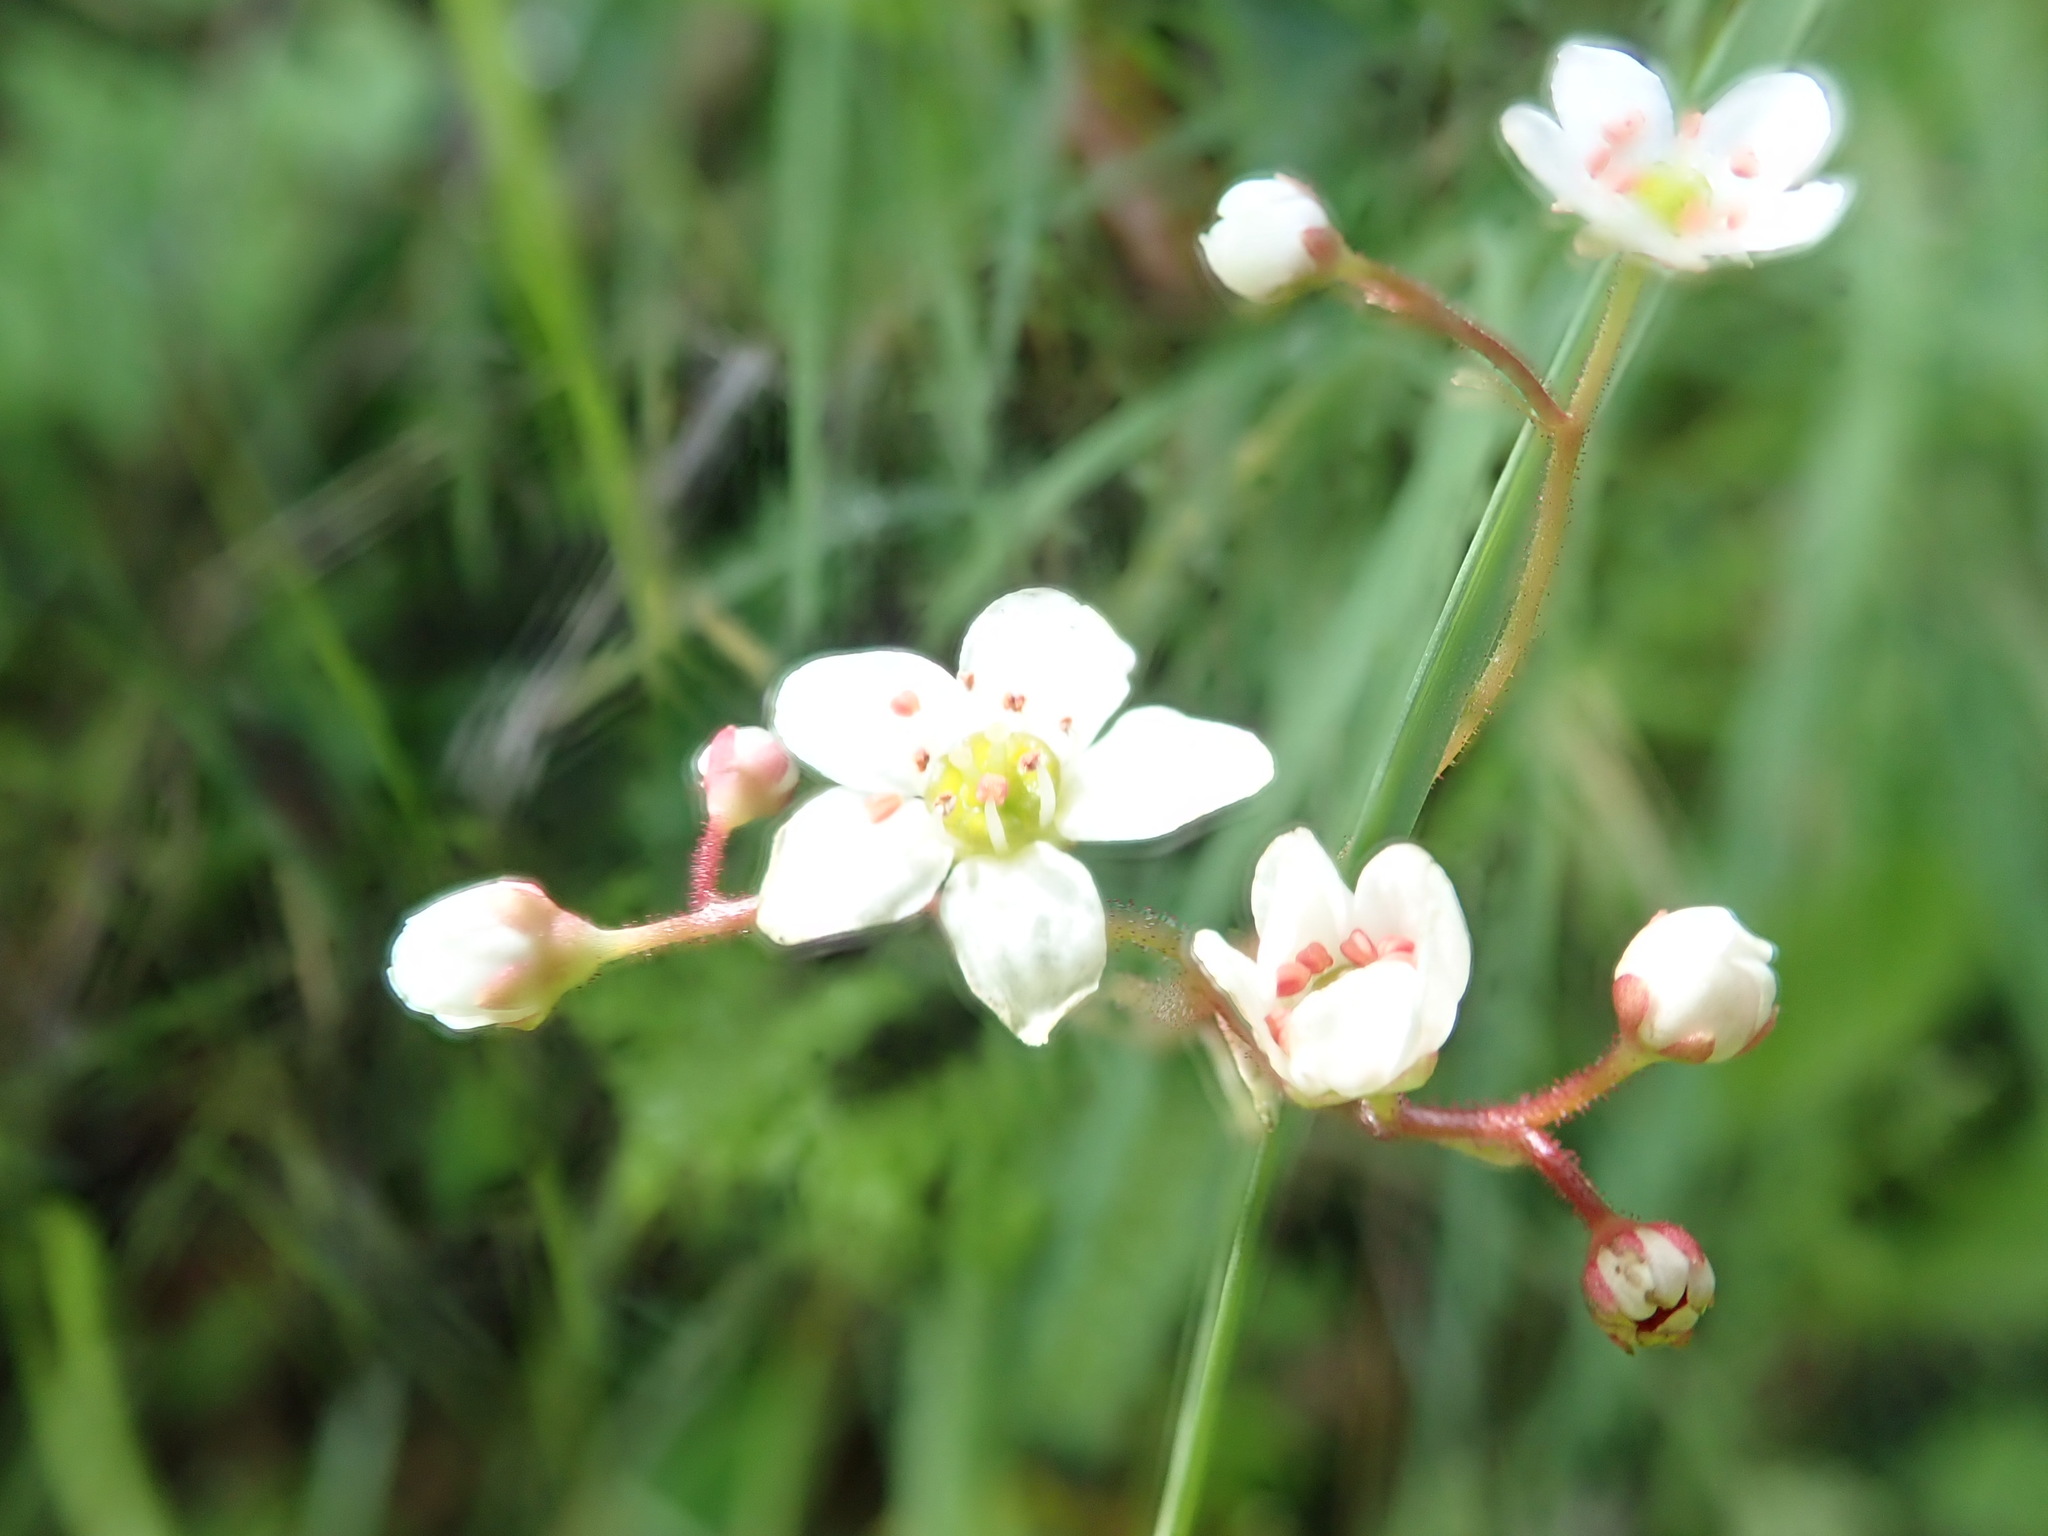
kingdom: Plantae
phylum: Tracheophyta
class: Magnoliopsida
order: Saxifragales
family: Saxifragaceae
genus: Micranthes
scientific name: Micranthes californica
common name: California saxifrage
